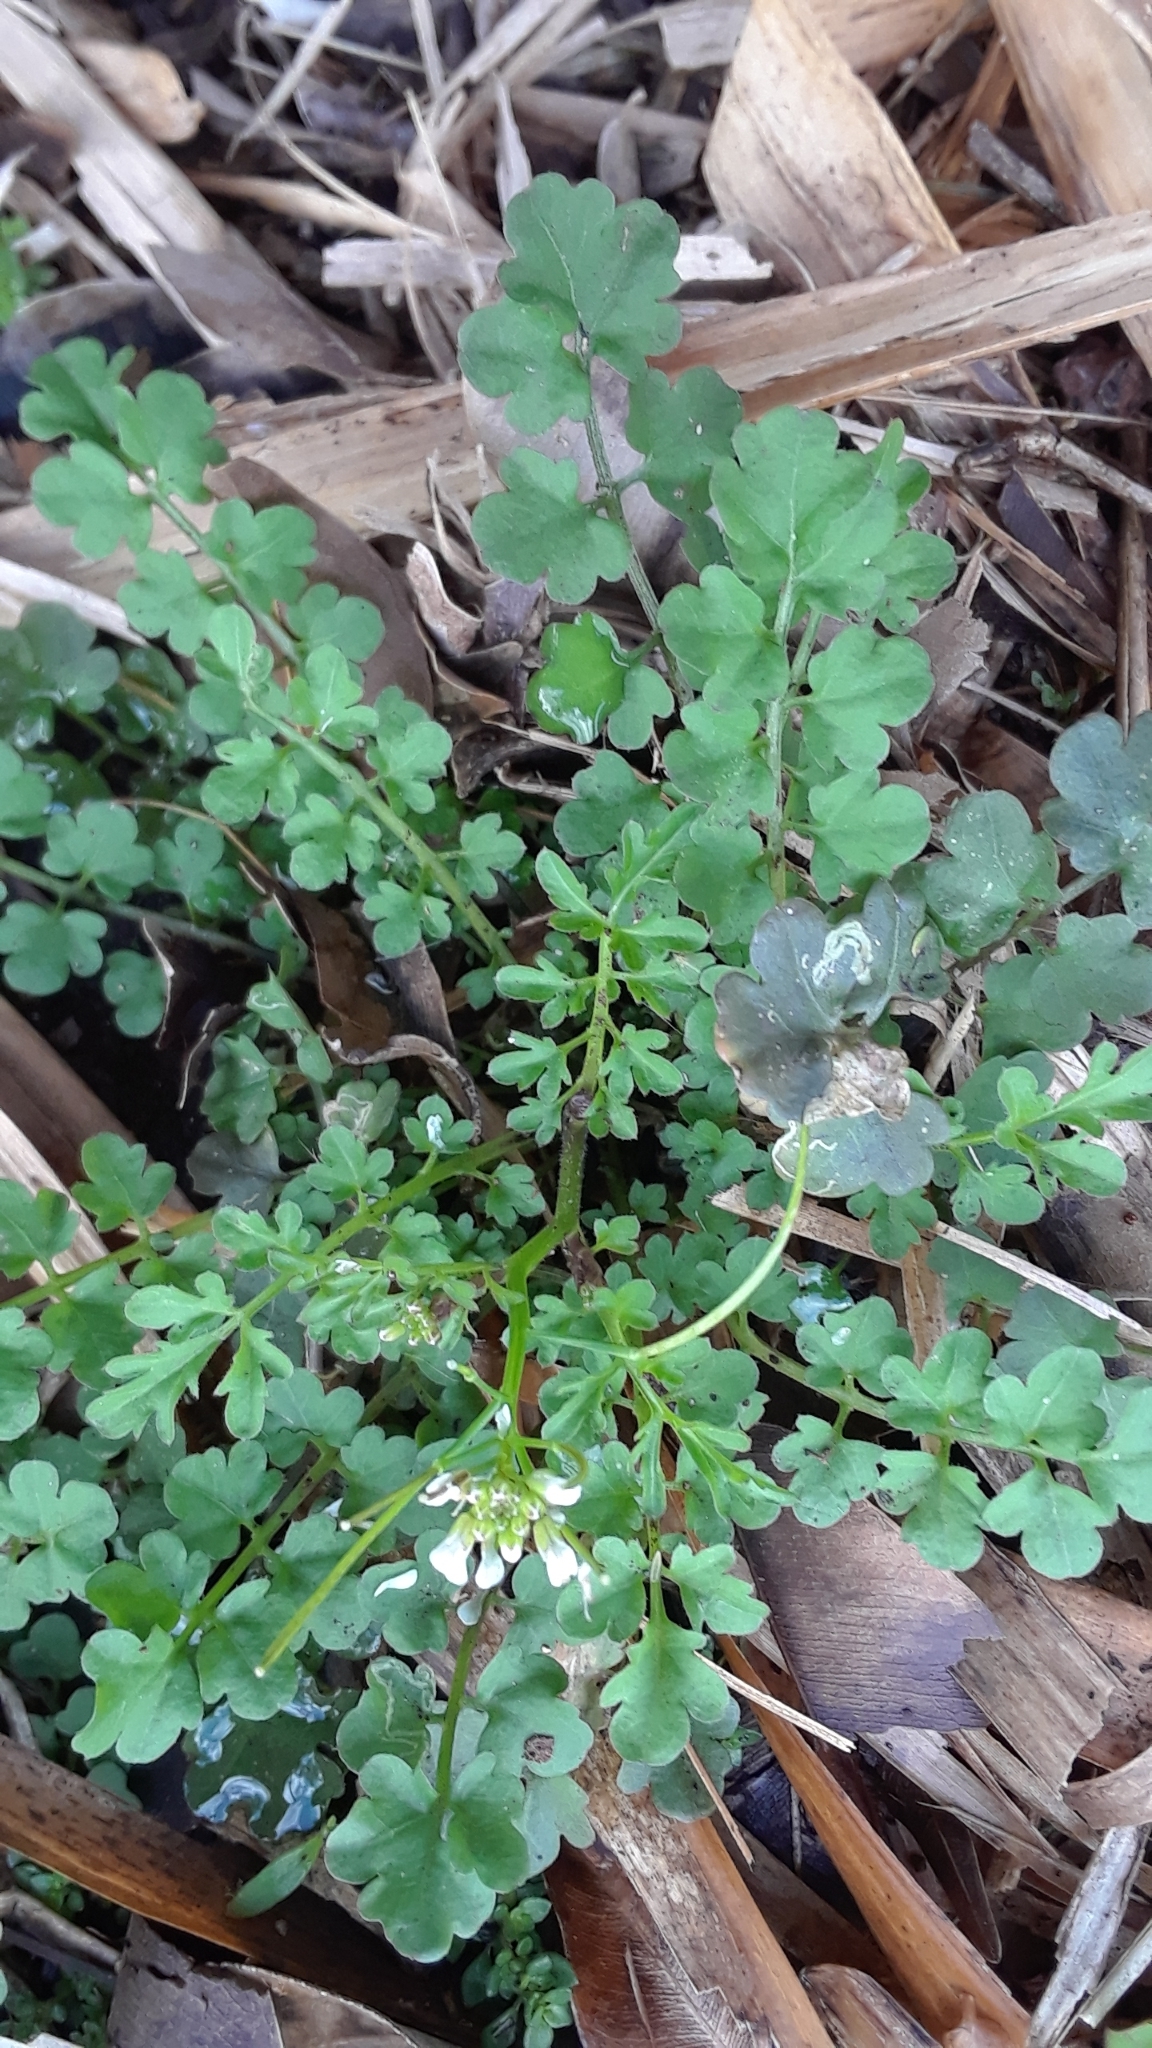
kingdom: Plantae
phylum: Tracheophyta
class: Magnoliopsida
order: Brassicales
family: Brassicaceae
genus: Cardamine
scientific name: Cardamine occulta
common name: Asian wavy bittercress
